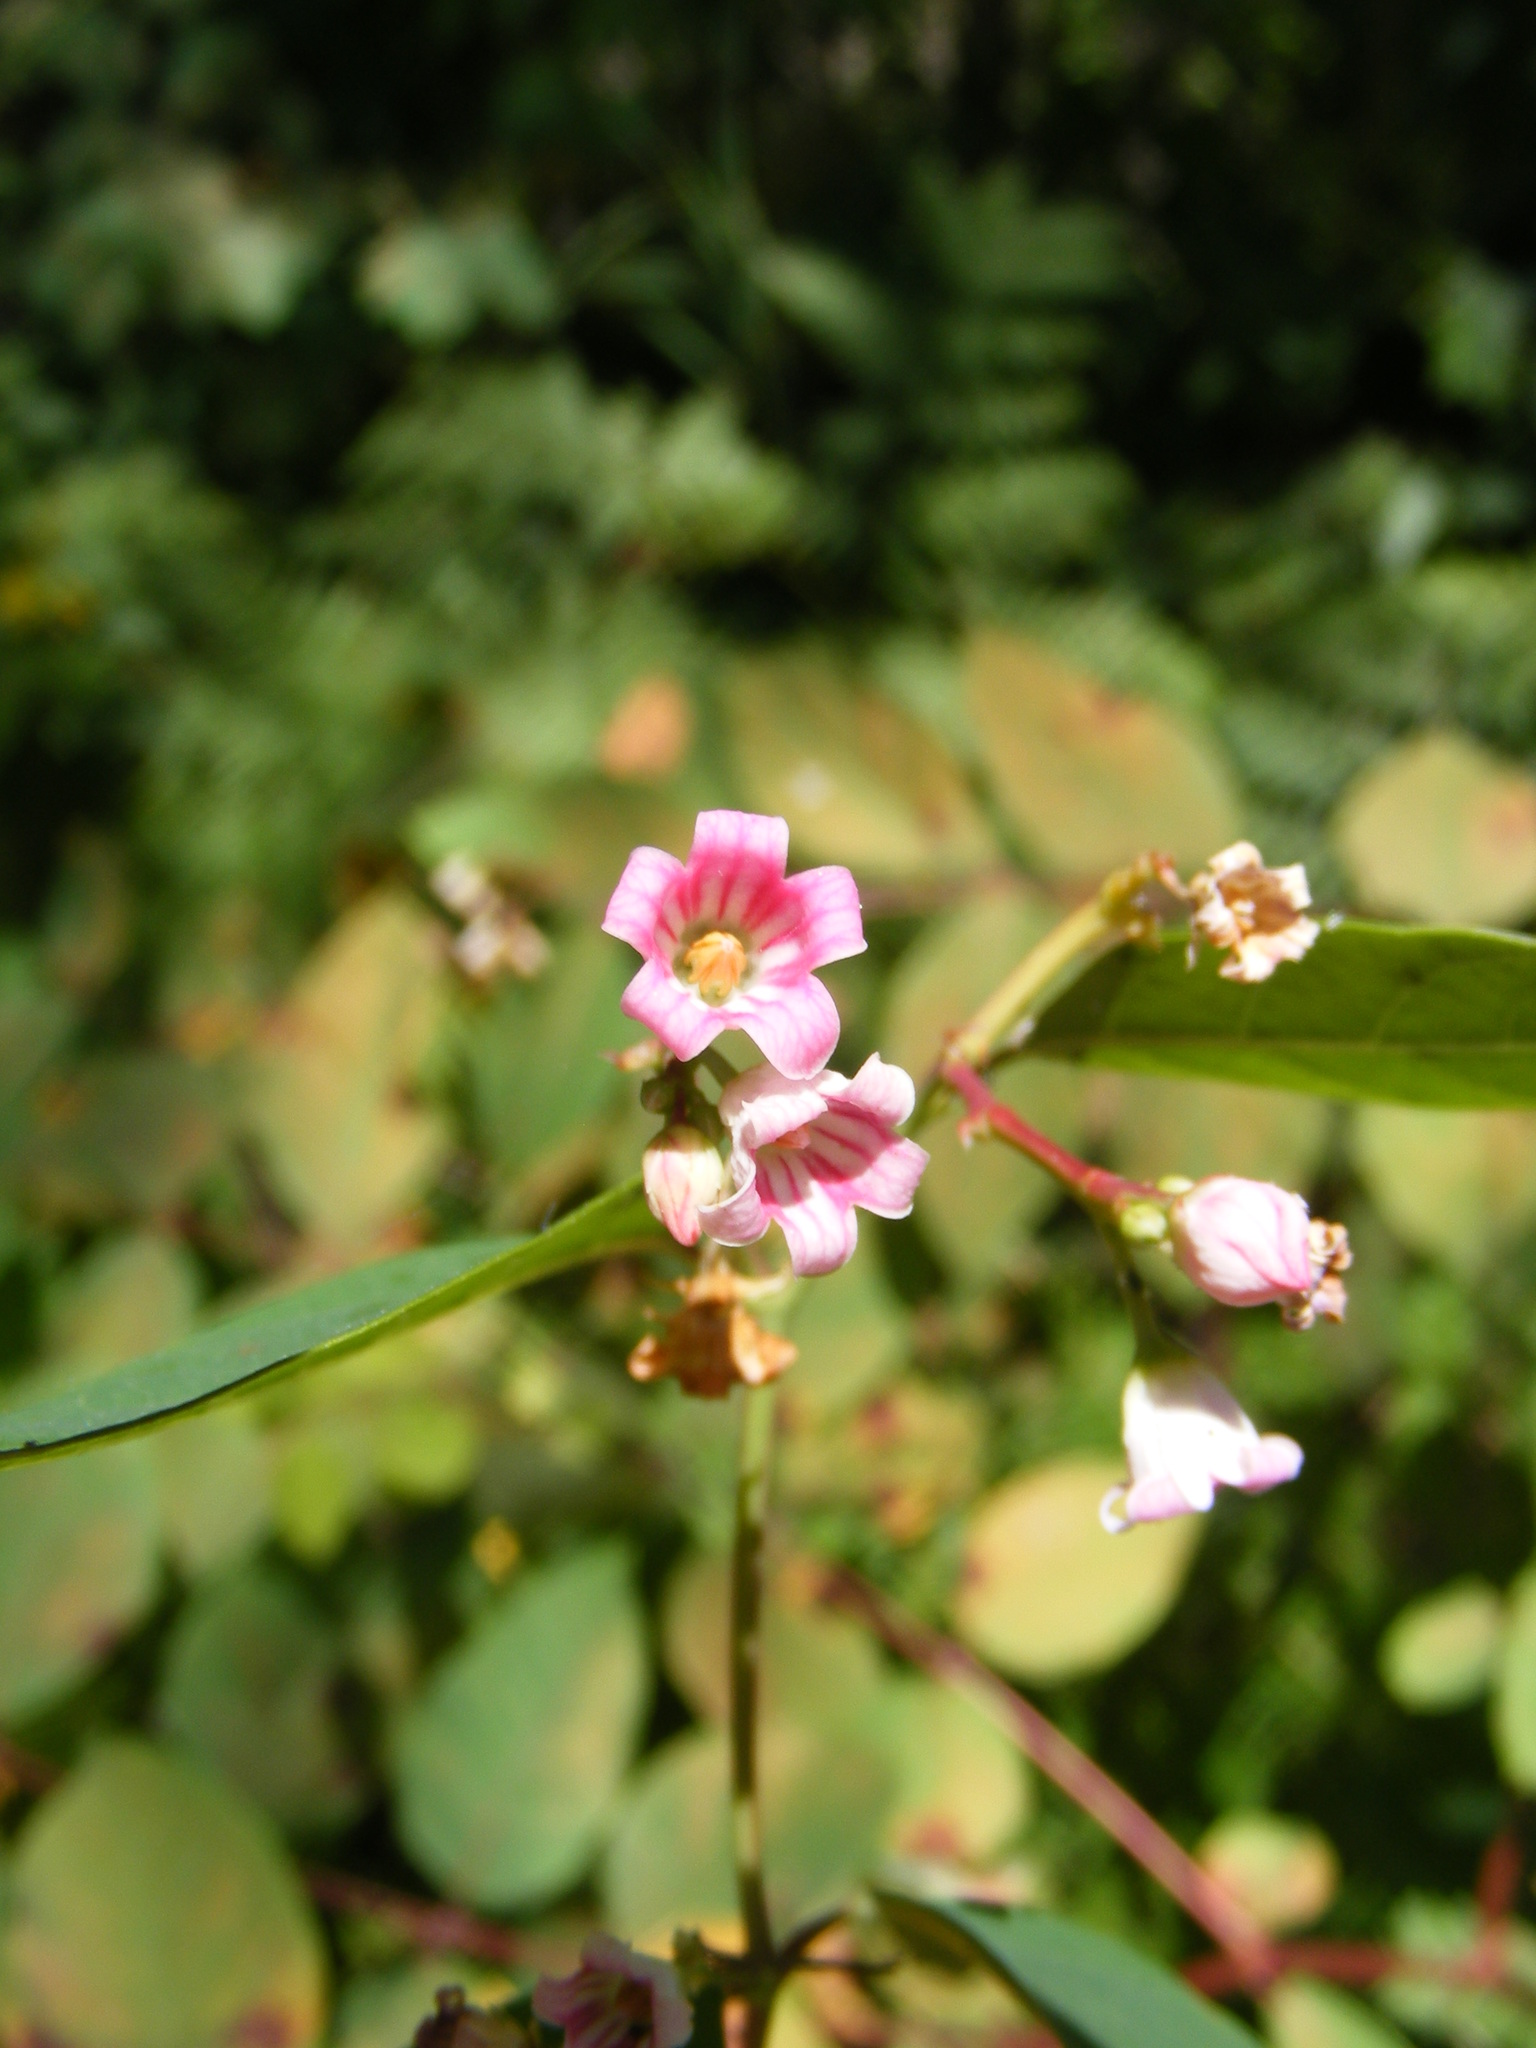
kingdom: Plantae
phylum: Tracheophyta
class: Magnoliopsida
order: Gentianales
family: Apocynaceae
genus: Apocynum
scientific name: Apocynum androsaemifolium
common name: Spreading dogbane
